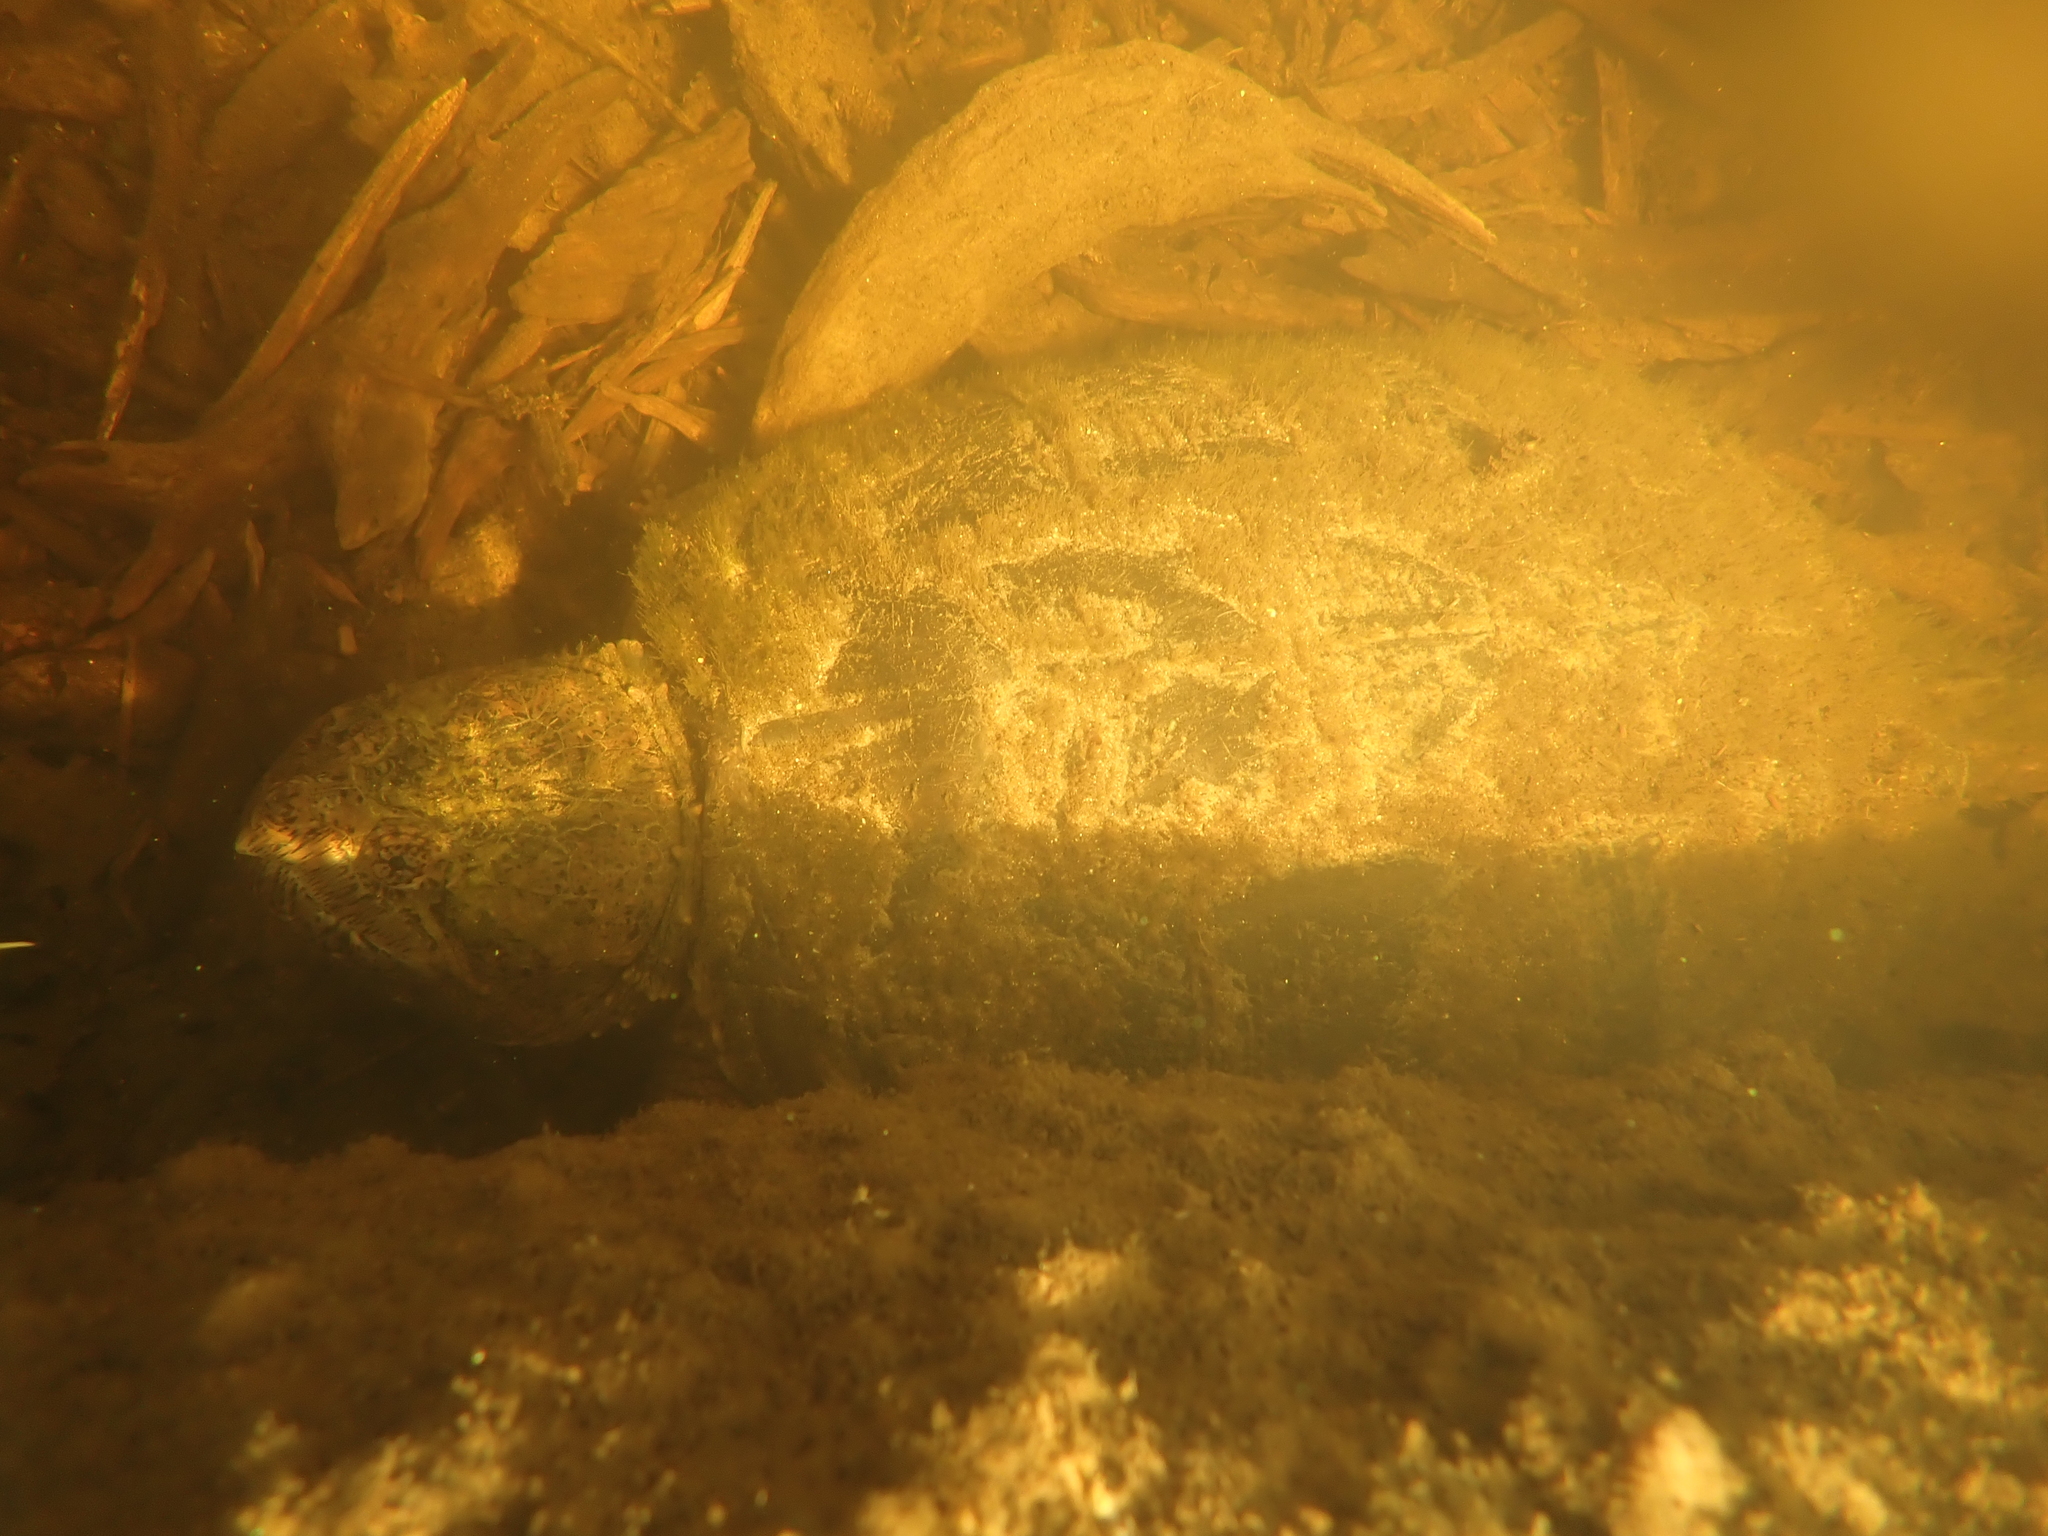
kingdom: Animalia
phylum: Chordata
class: Testudines
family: Chelydridae
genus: Chelydra
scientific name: Chelydra serpentina
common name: Common snapping turtle
